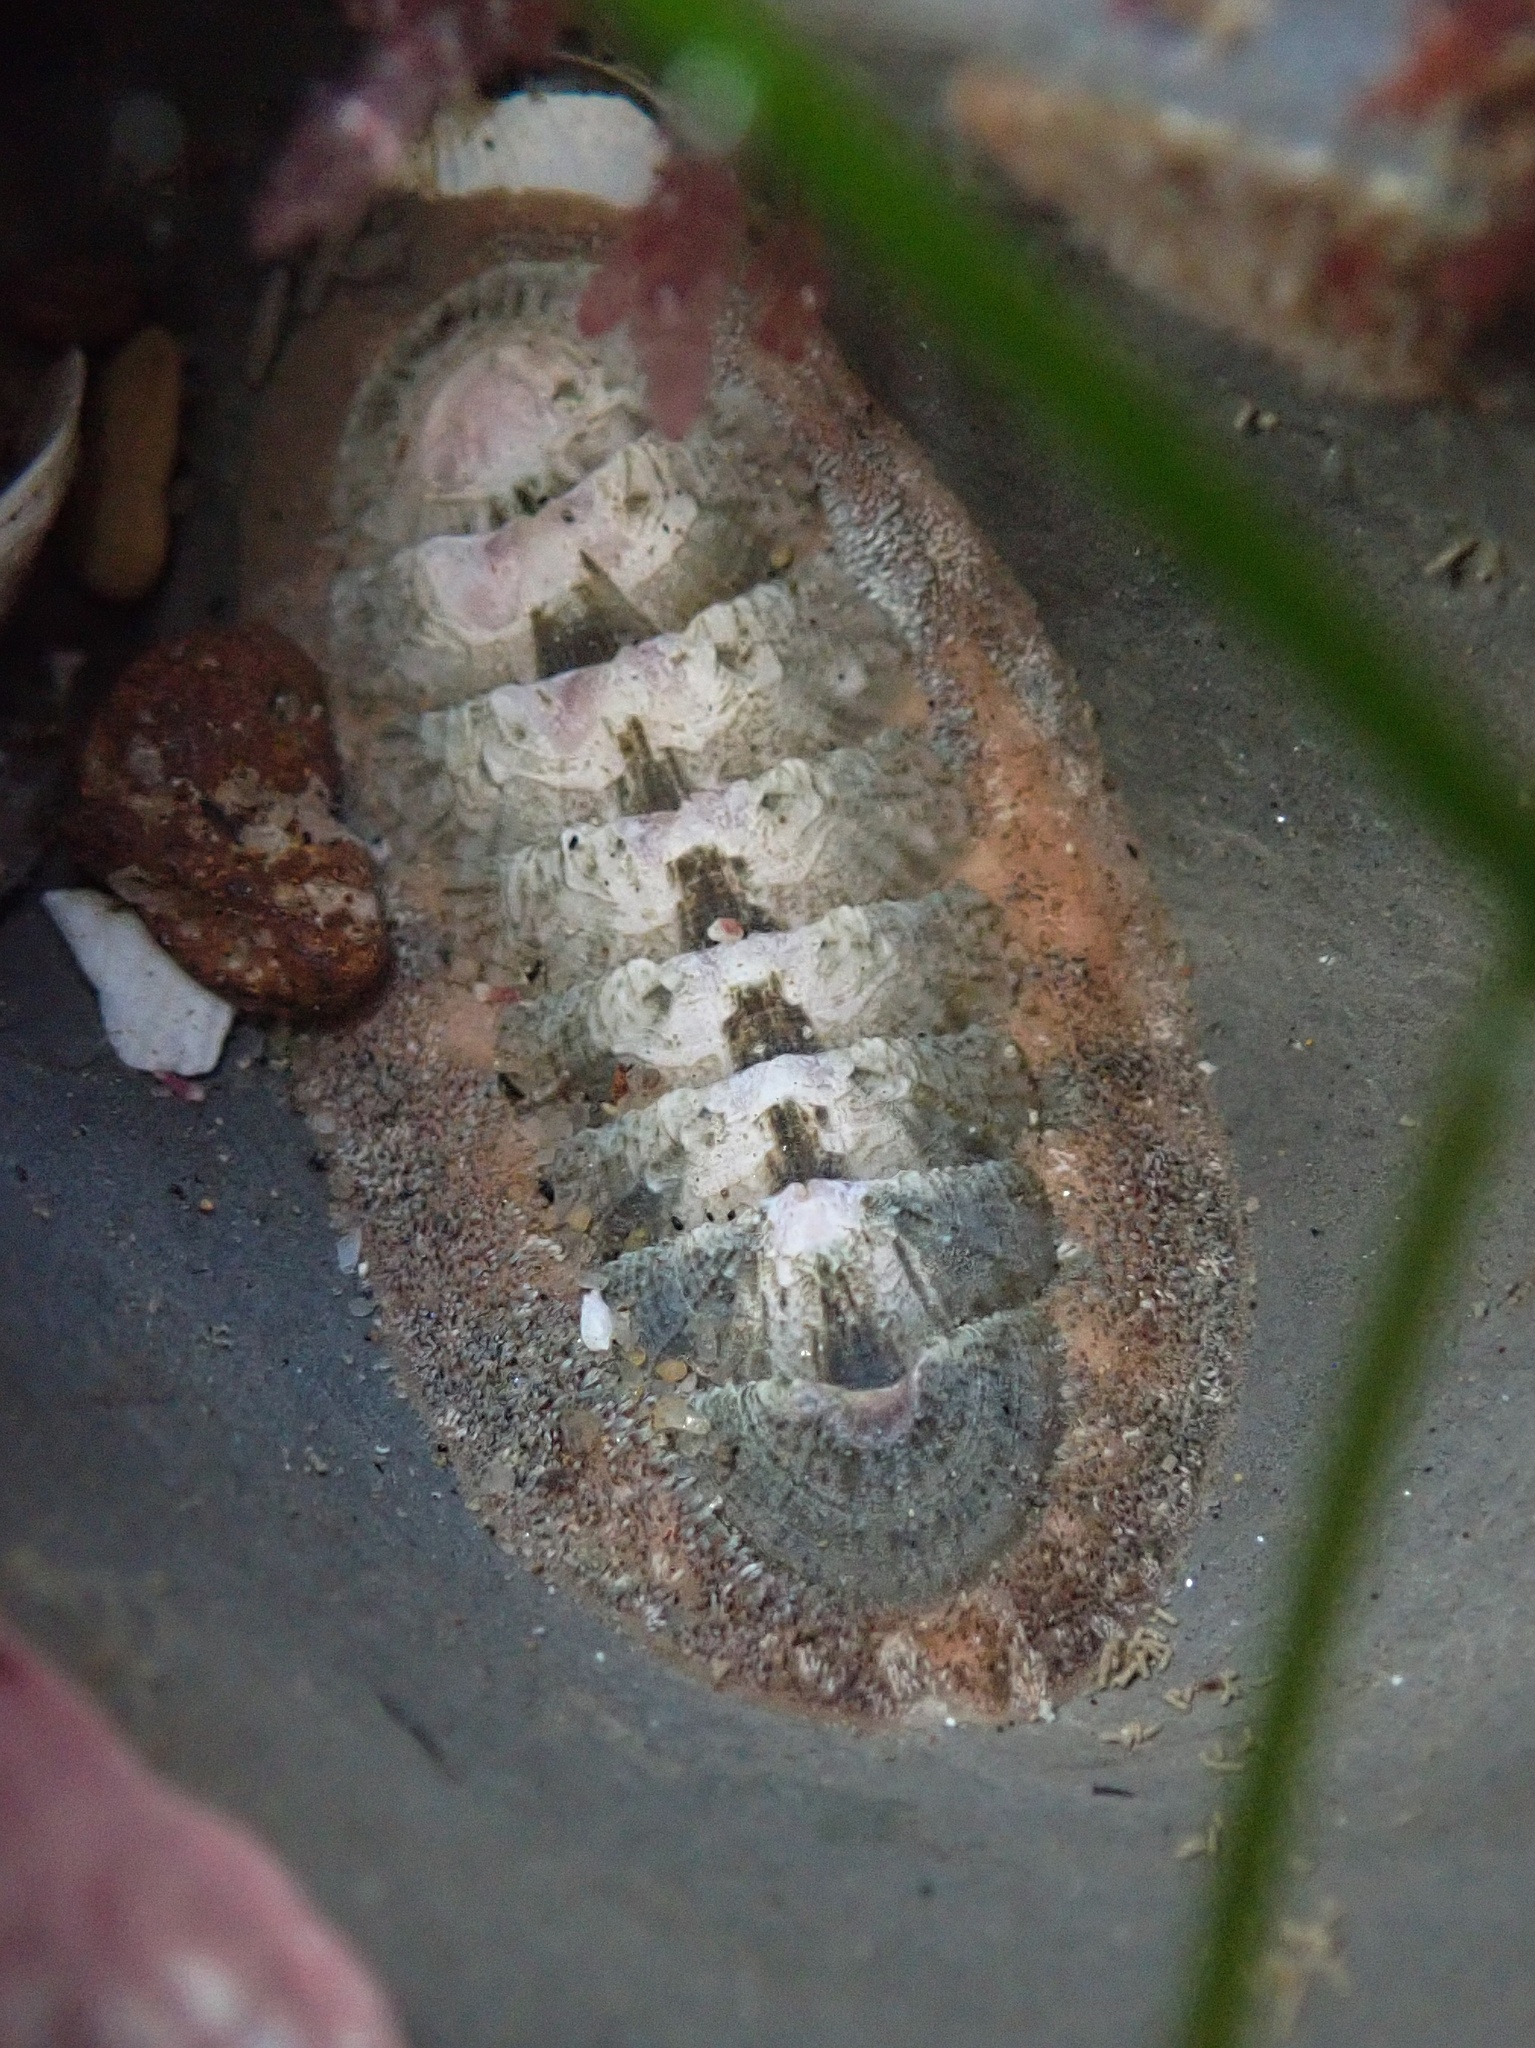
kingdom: Animalia
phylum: Mollusca
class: Polyplacophora
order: Chitonida
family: Ischnochitonidae
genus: Stenoplax
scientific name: Stenoplax conspicua
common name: Conspicuous chiton
